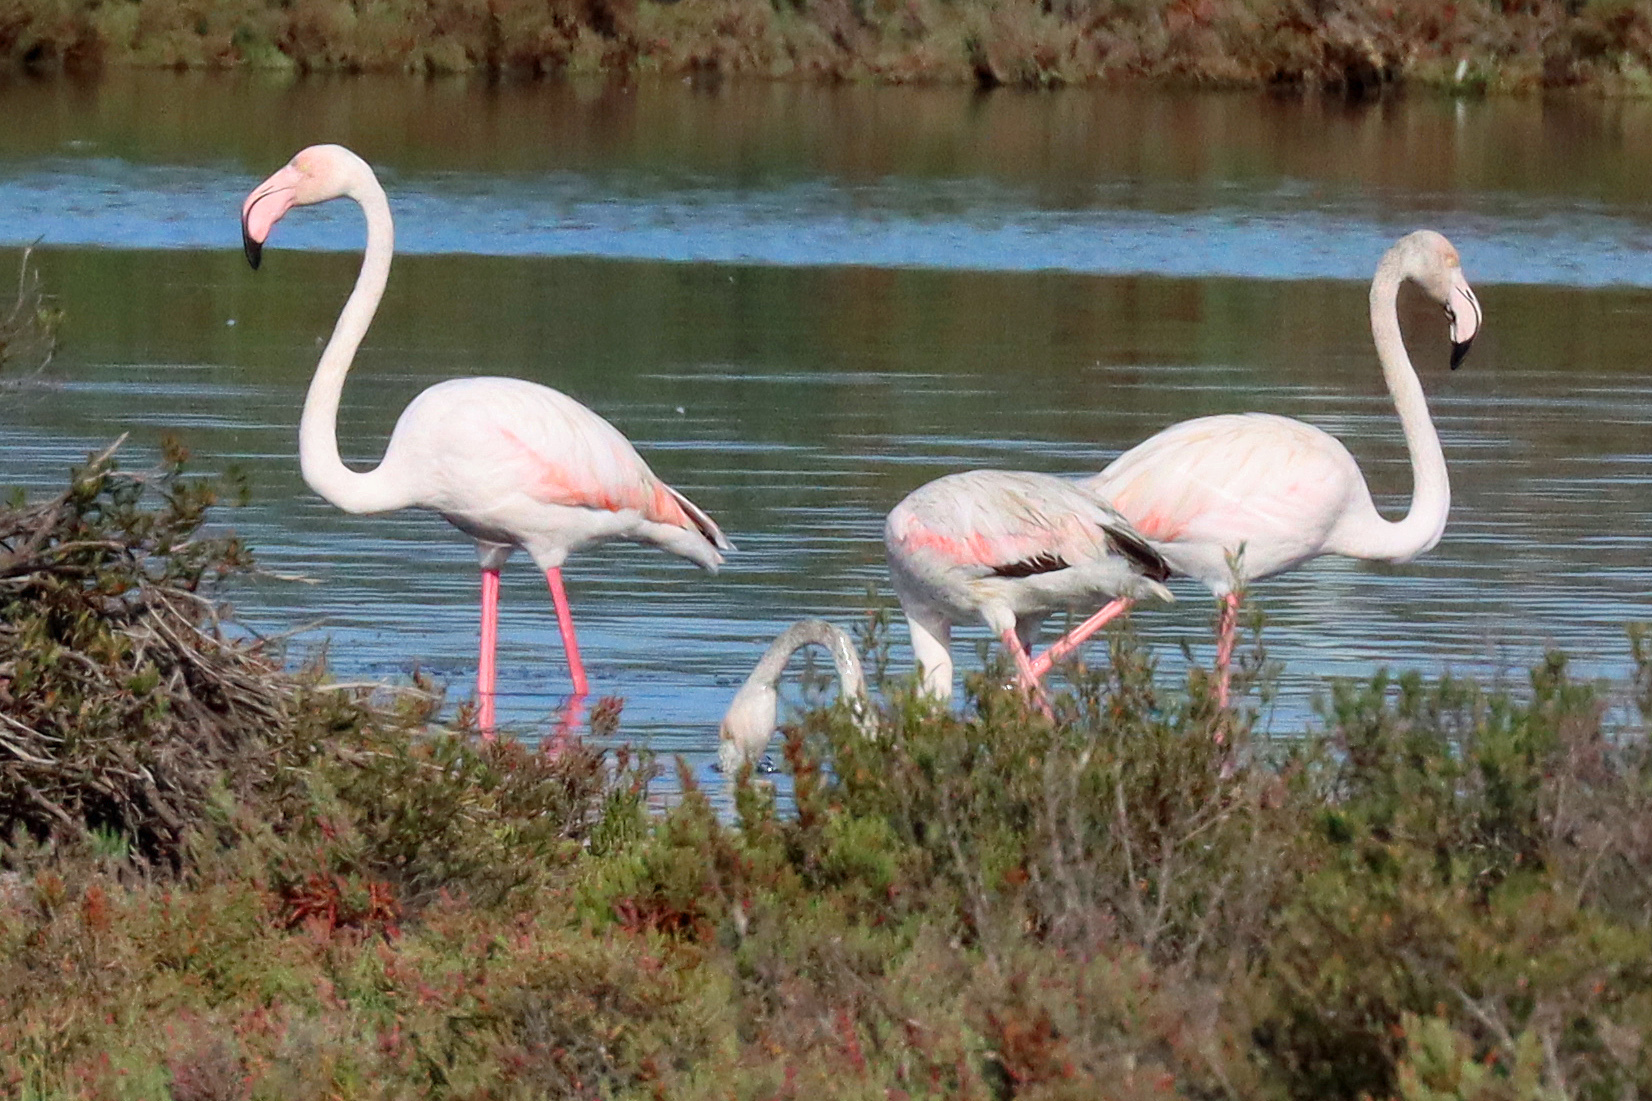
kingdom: Animalia
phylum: Chordata
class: Aves
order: Phoenicopteriformes
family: Phoenicopteridae
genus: Phoenicopterus
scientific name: Phoenicopterus roseus
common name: Greater flamingo
